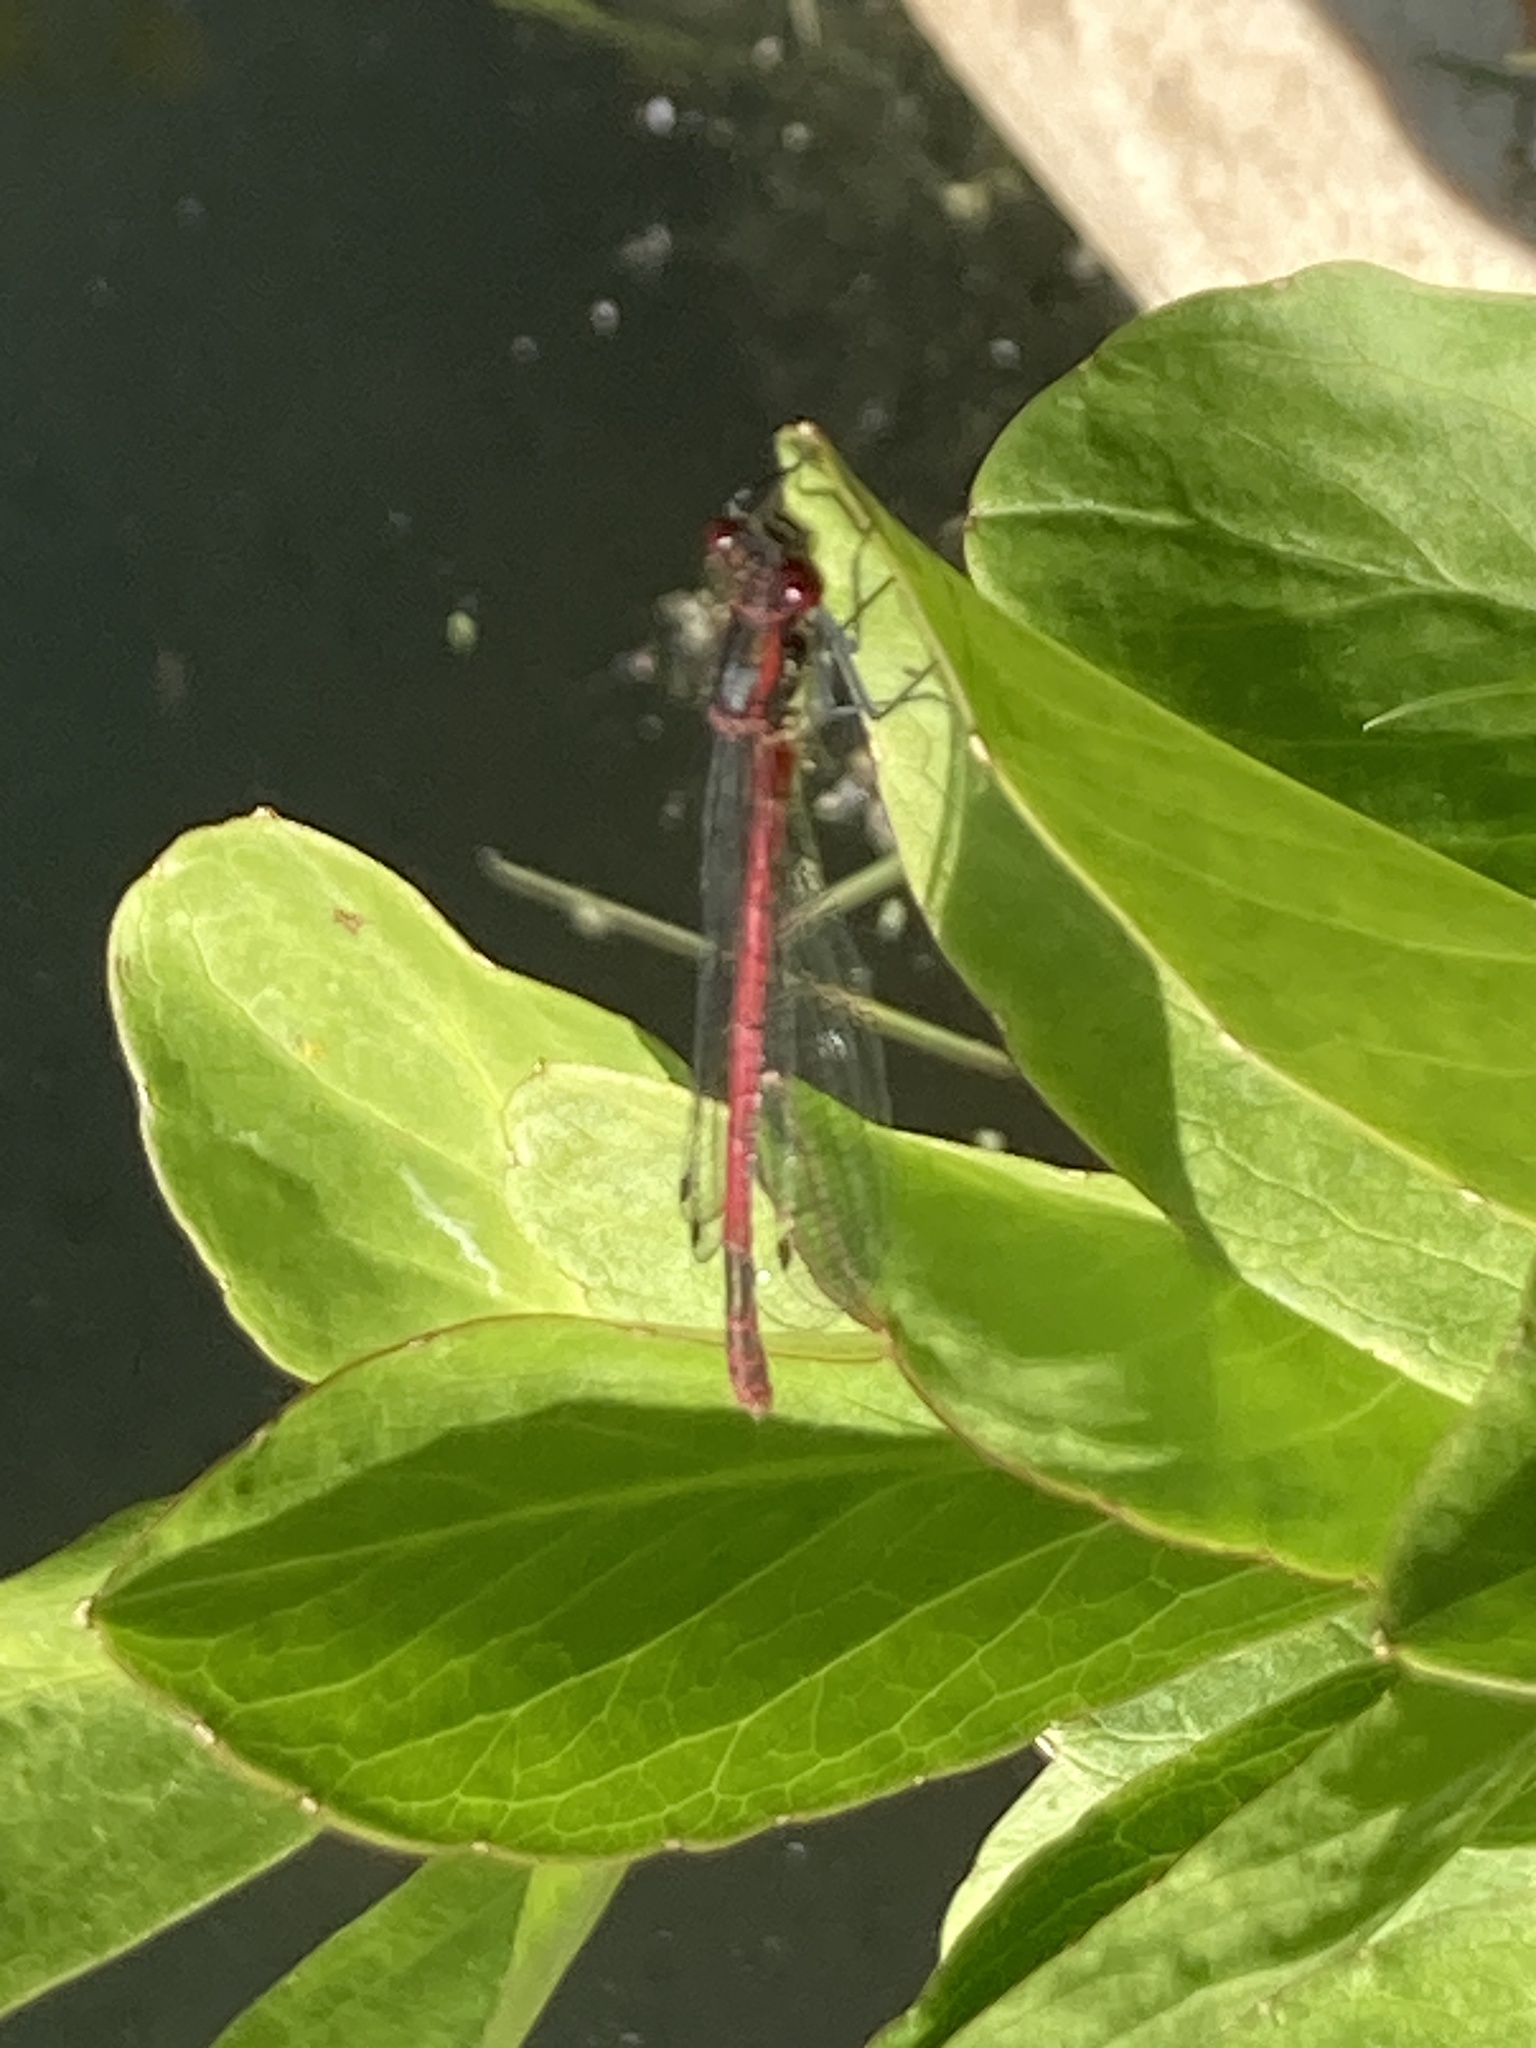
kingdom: Animalia
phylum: Arthropoda
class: Insecta
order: Odonata
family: Coenagrionidae
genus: Pyrrhosoma
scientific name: Pyrrhosoma nymphula
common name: Large red damsel
